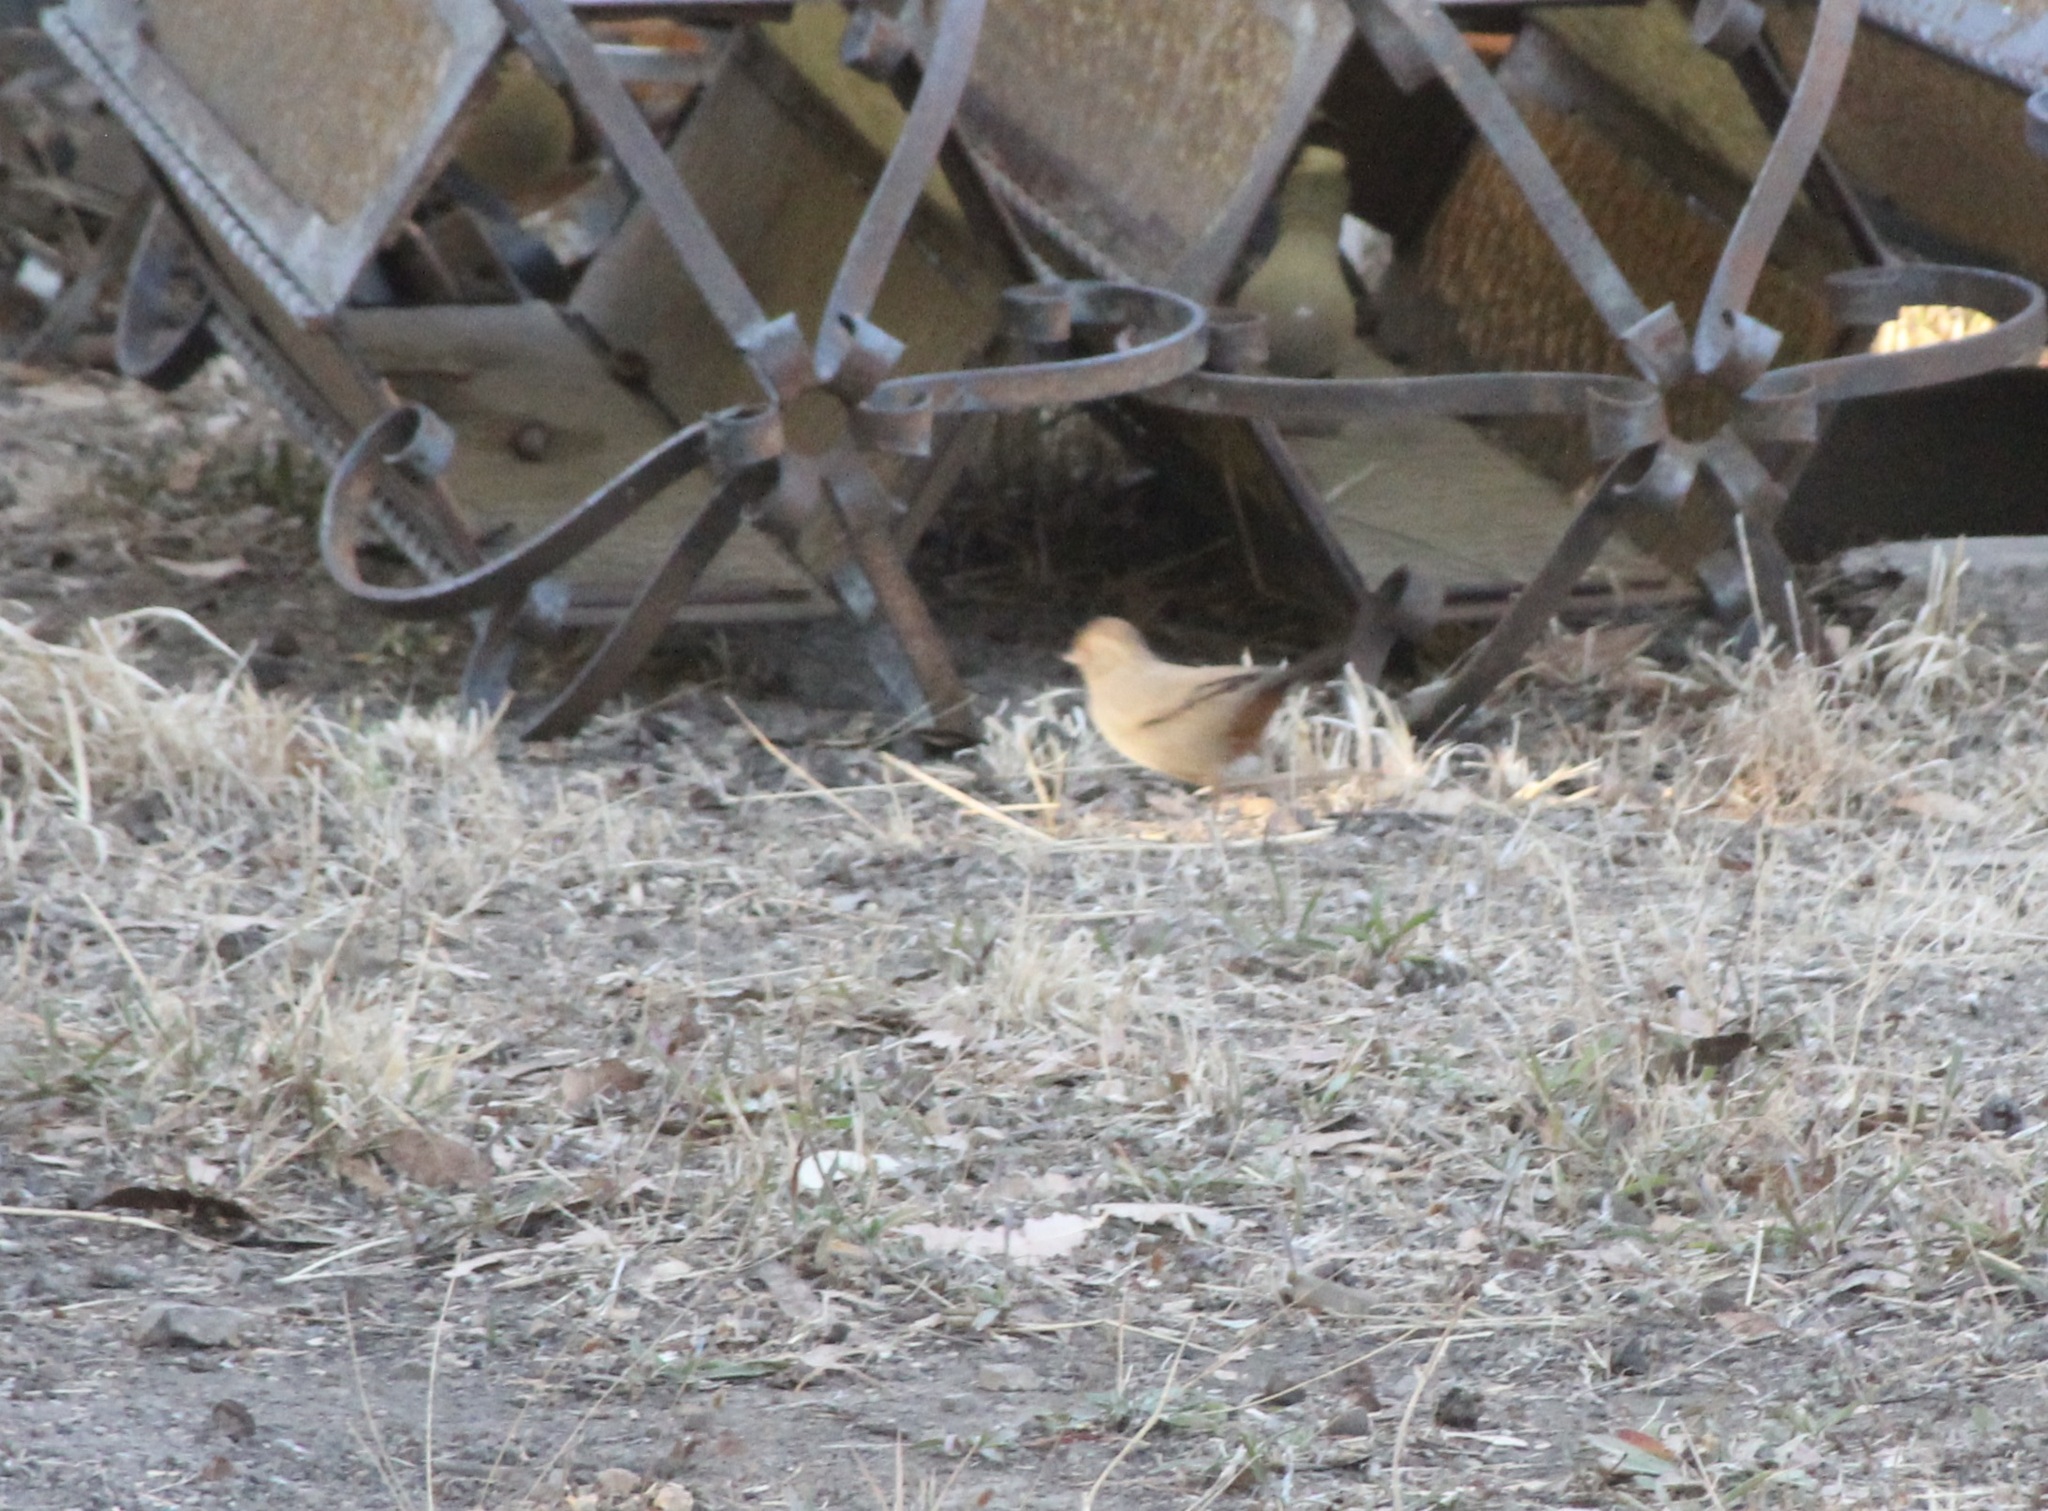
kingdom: Animalia
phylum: Chordata
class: Aves
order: Passeriformes
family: Passerellidae
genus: Melozone
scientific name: Melozone crissalis
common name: California towhee
